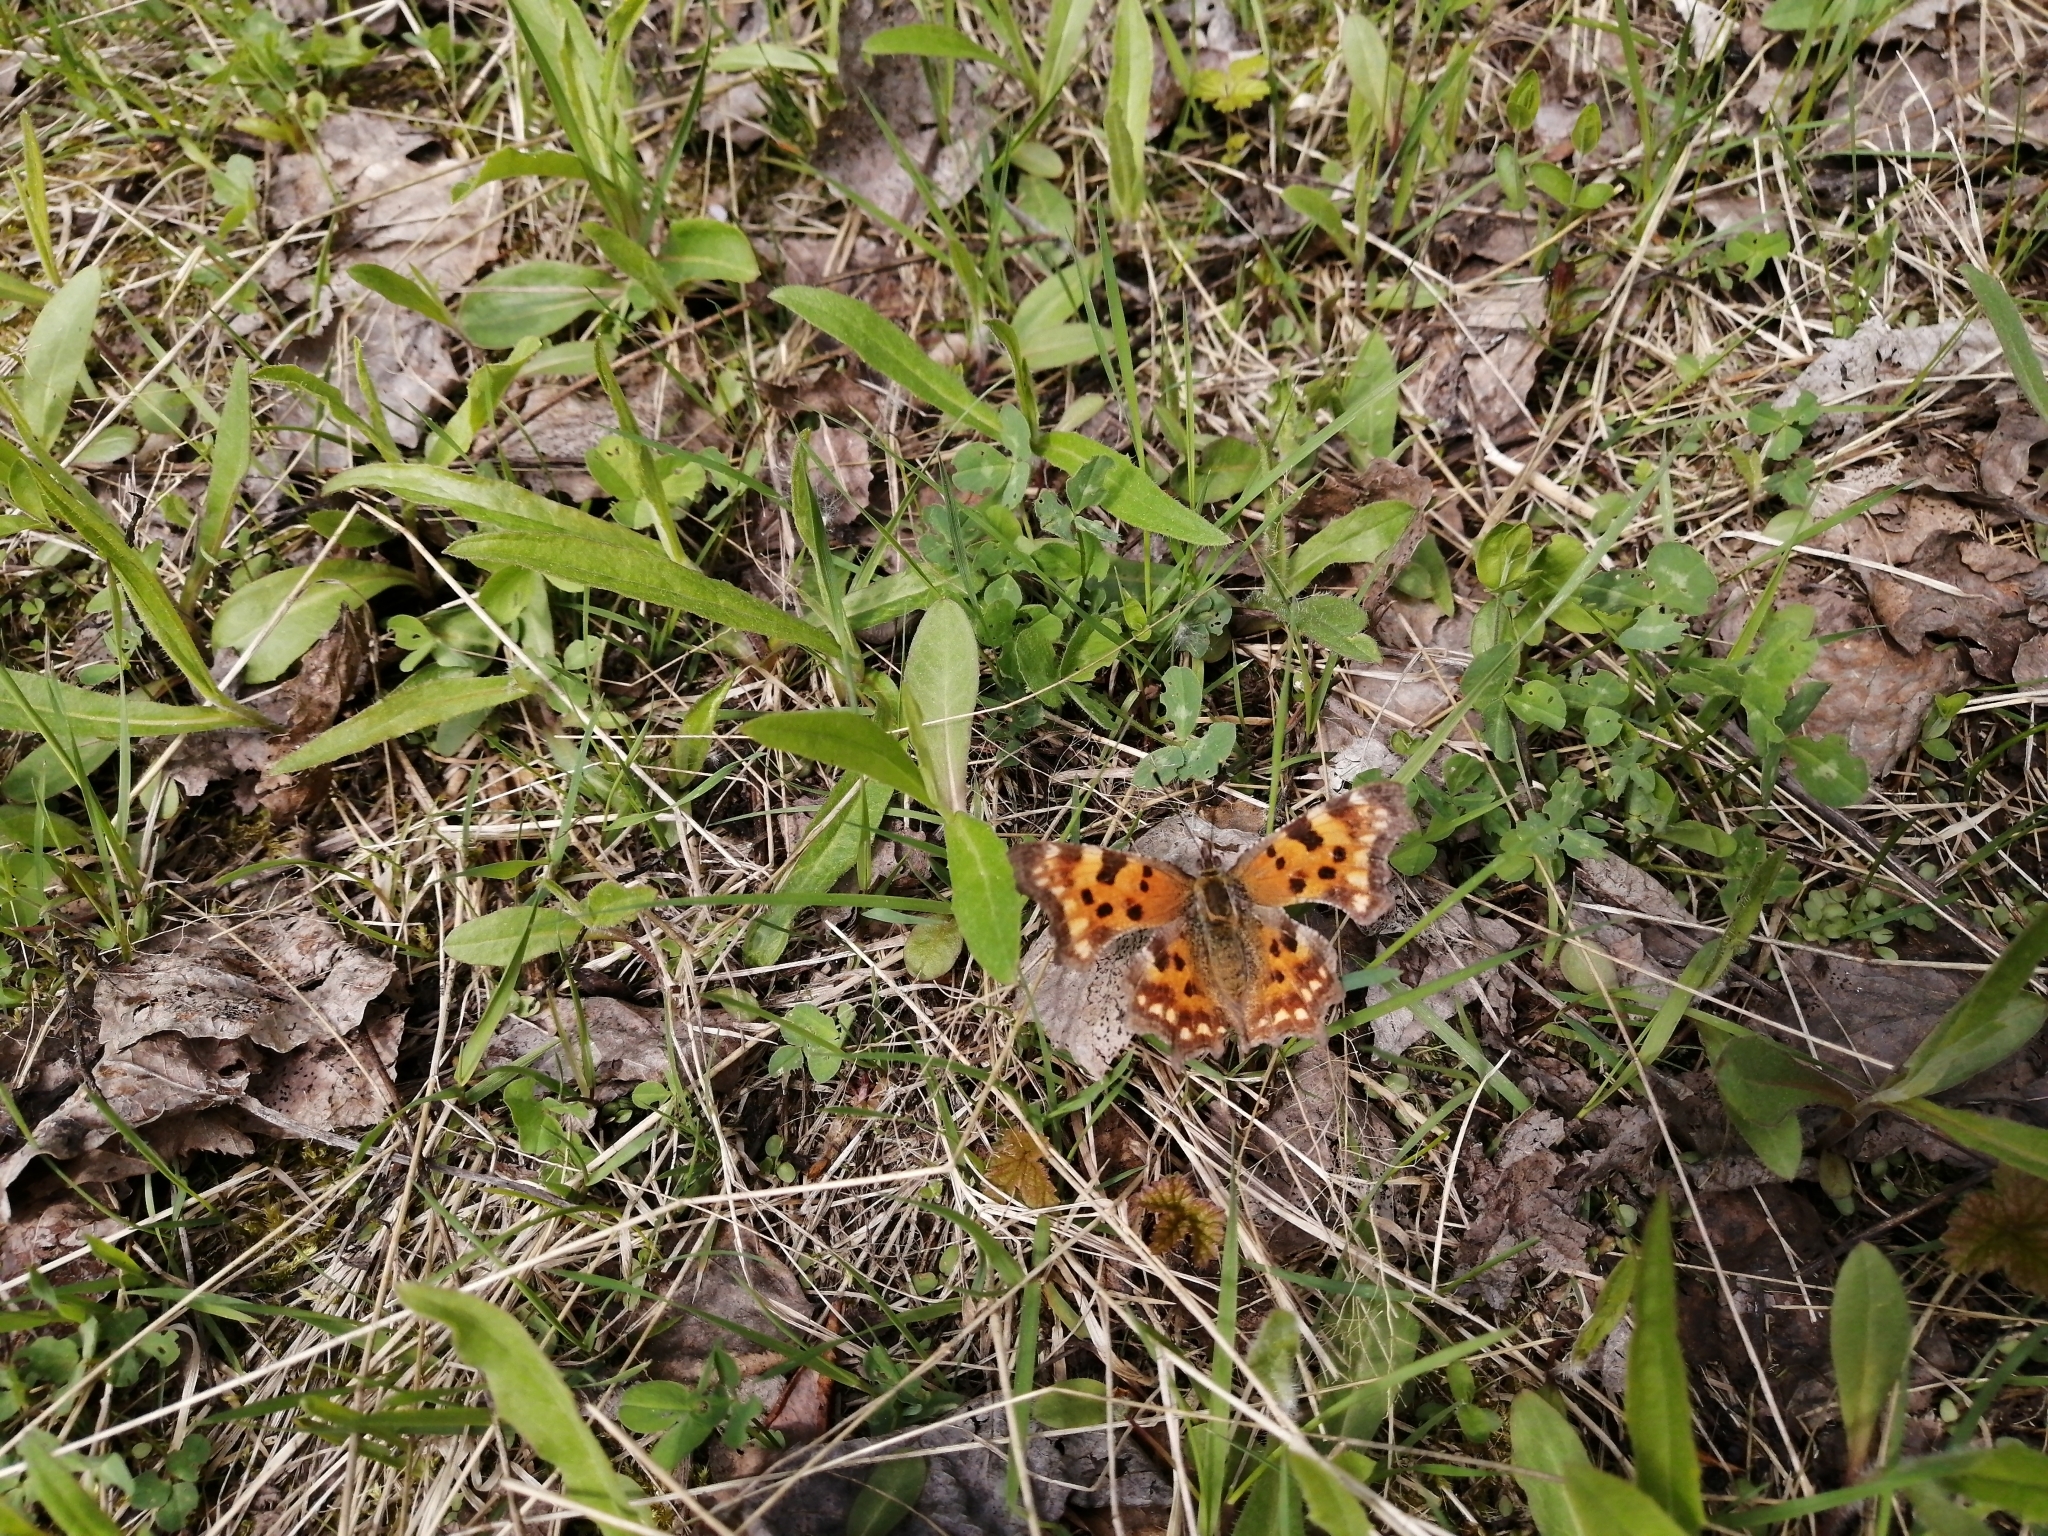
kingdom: Animalia
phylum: Arthropoda
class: Insecta
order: Lepidoptera
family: Nymphalidae
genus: Polygonia
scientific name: Polygonia c-album
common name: Comma
